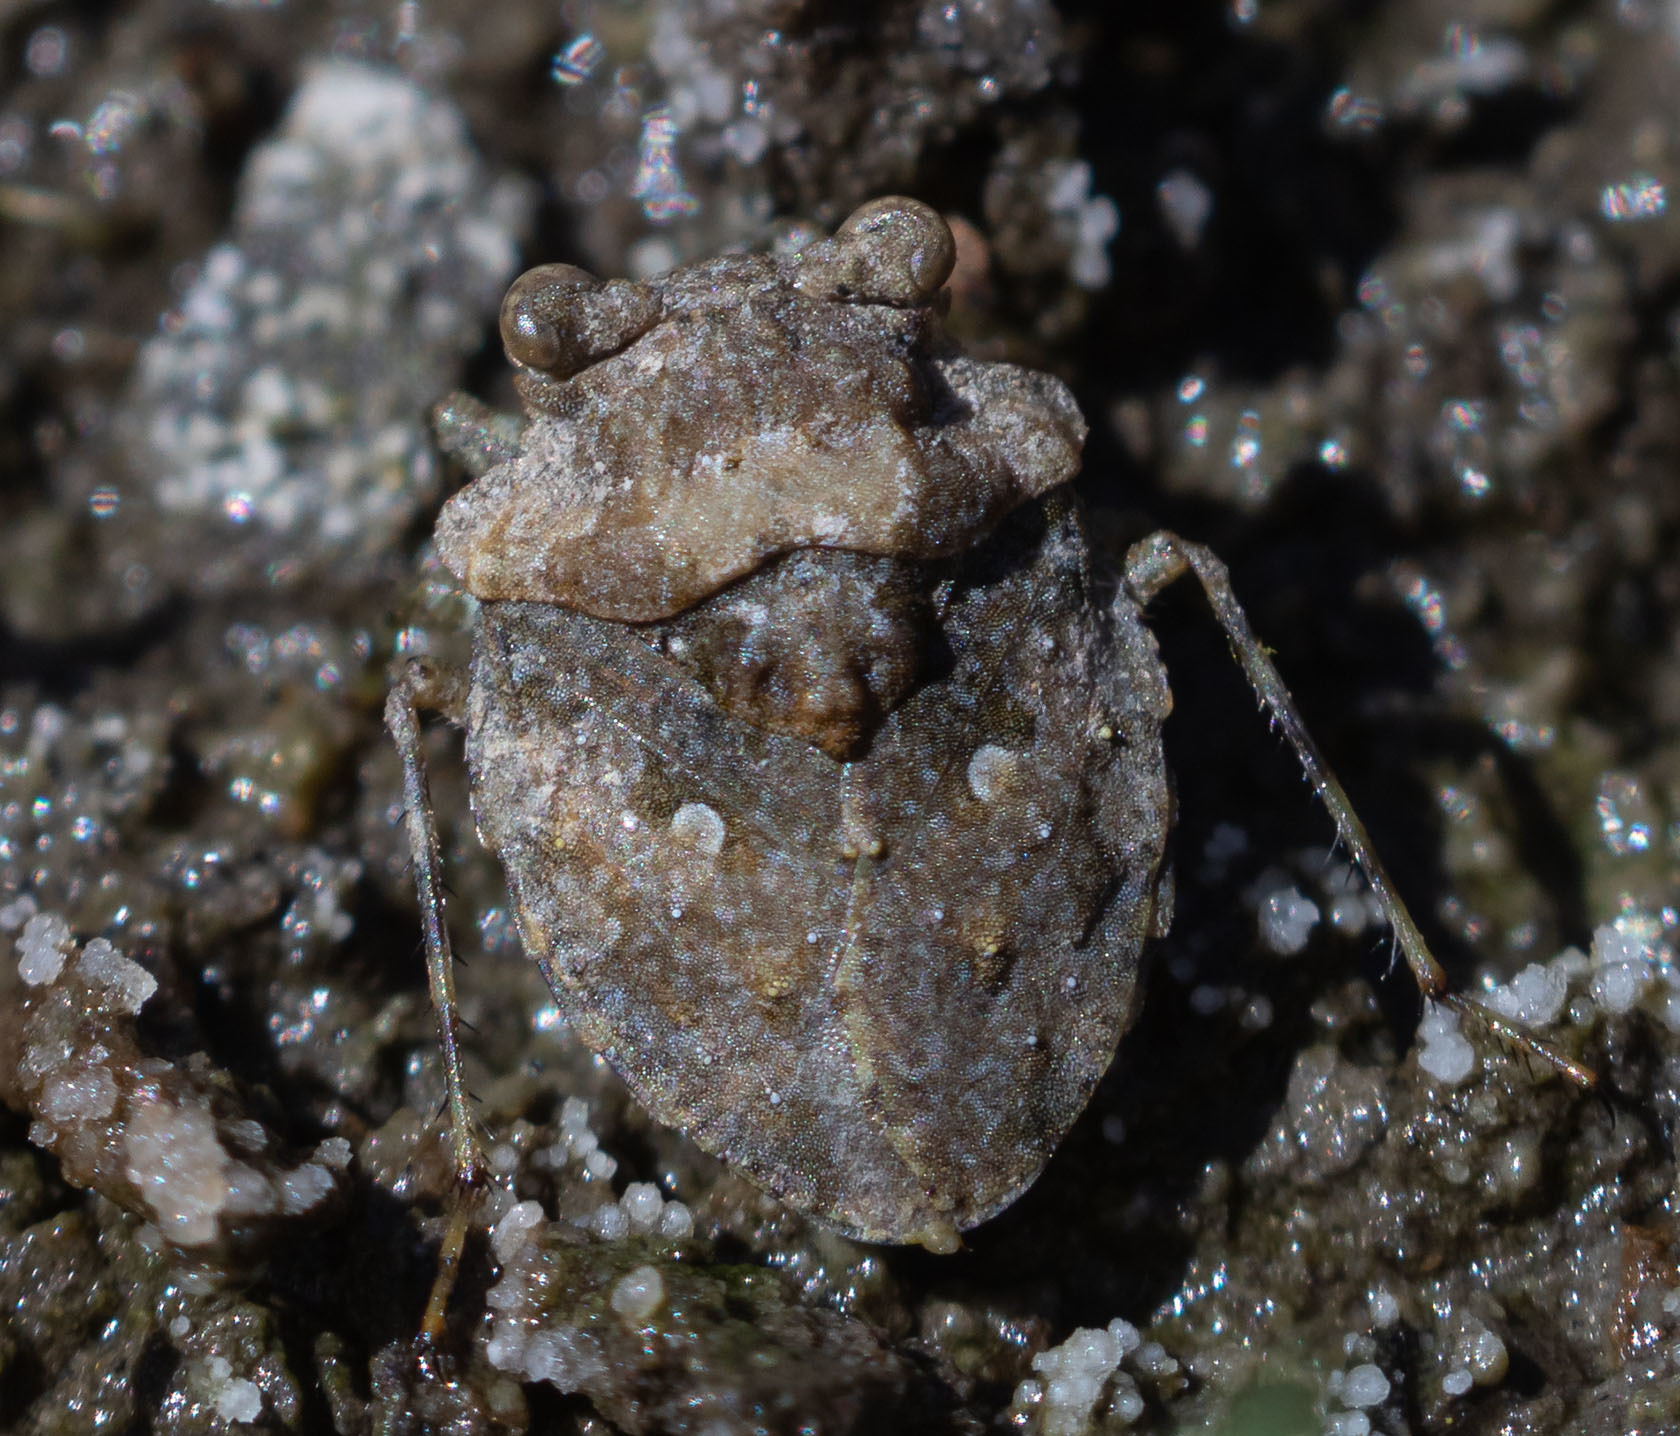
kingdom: Animalia
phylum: Arthropoda
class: Insecta
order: Hemiptera
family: Gelastocoridae
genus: Gelastocoris
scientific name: Gelastocoris oculatus
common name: Toad bug
